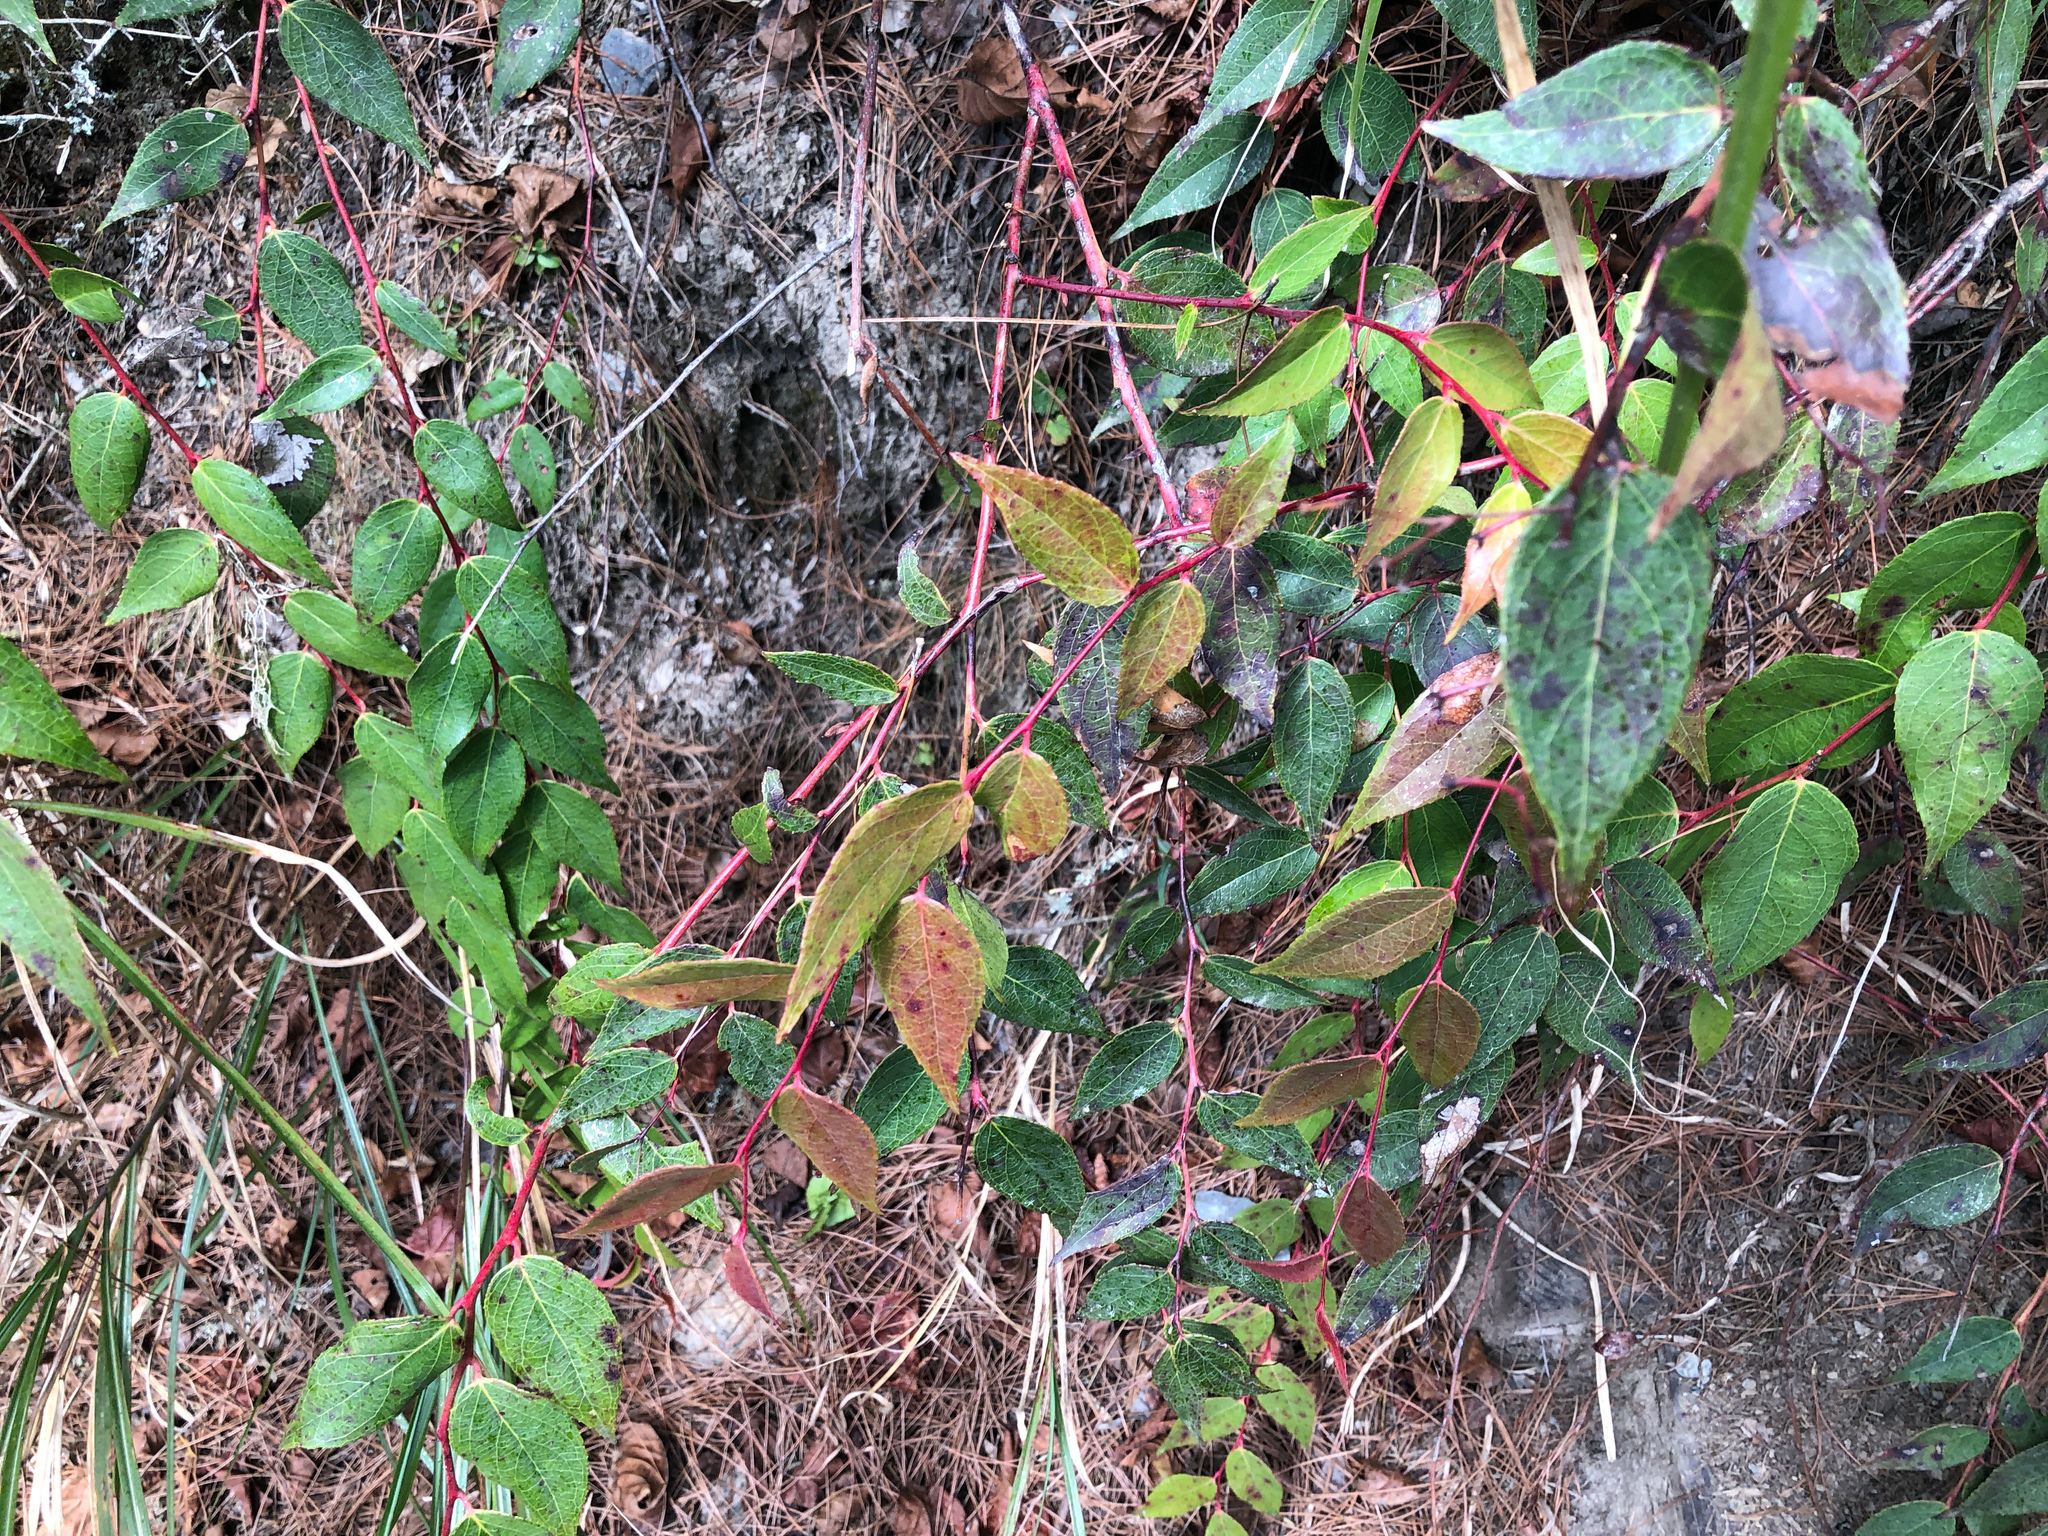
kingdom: Plantae
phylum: Tracheophyta
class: Magnoliopsida
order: Ericales
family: Ericaceae
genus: Gaultheria
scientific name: Gaultheria leucocarpa
